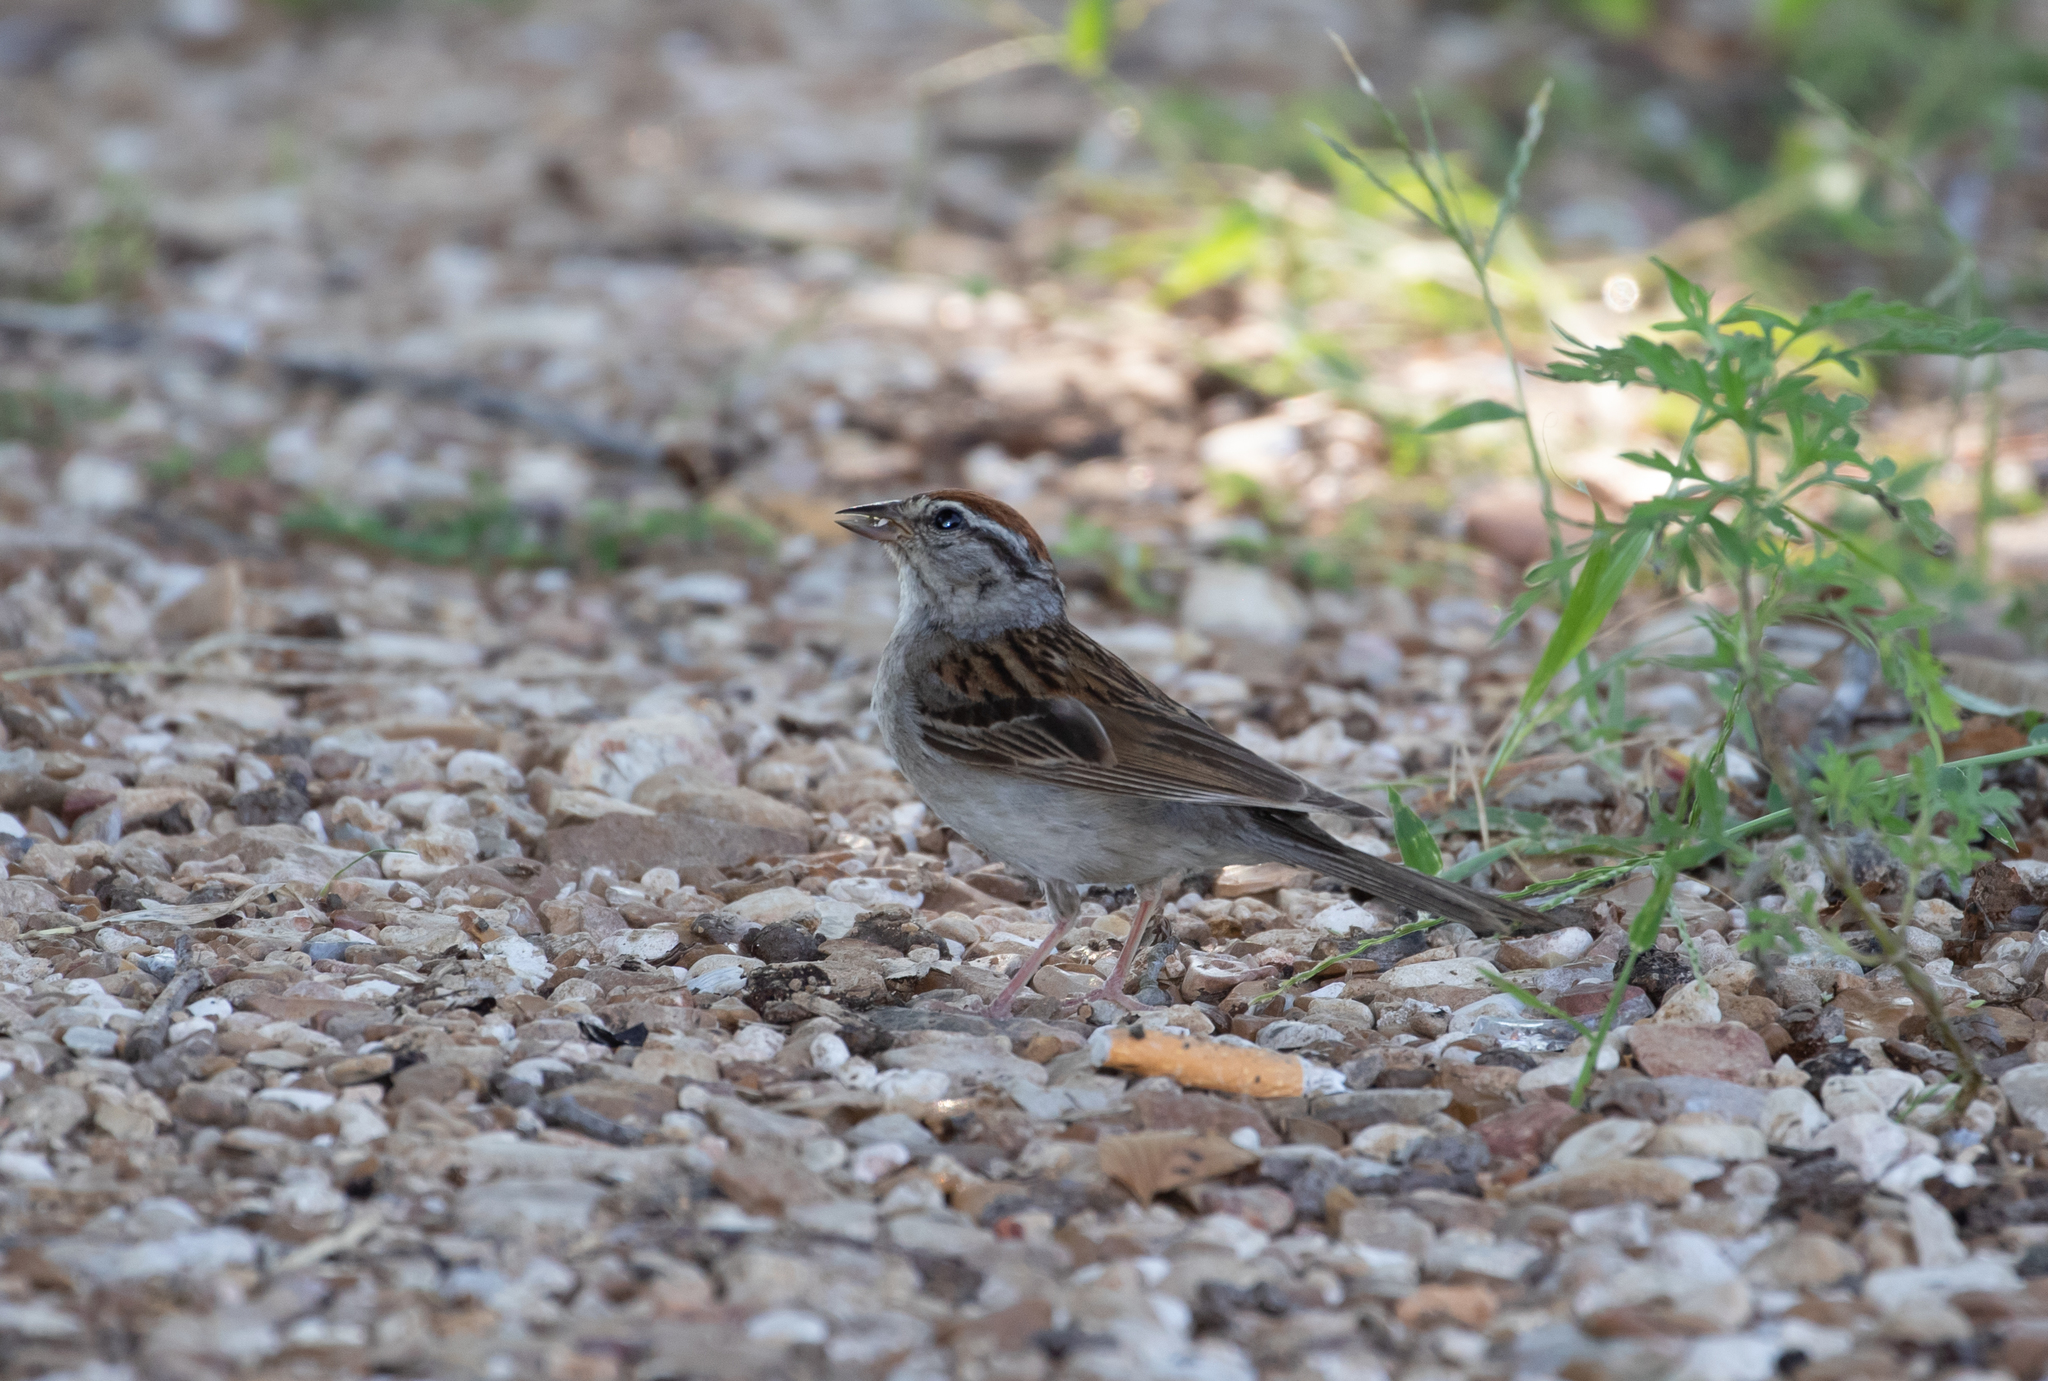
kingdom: Animalia
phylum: Chordata
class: Aves
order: Passeriformes
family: Passerellidae
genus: Spizella
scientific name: Spizella passerina
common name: Chipping sparrow
